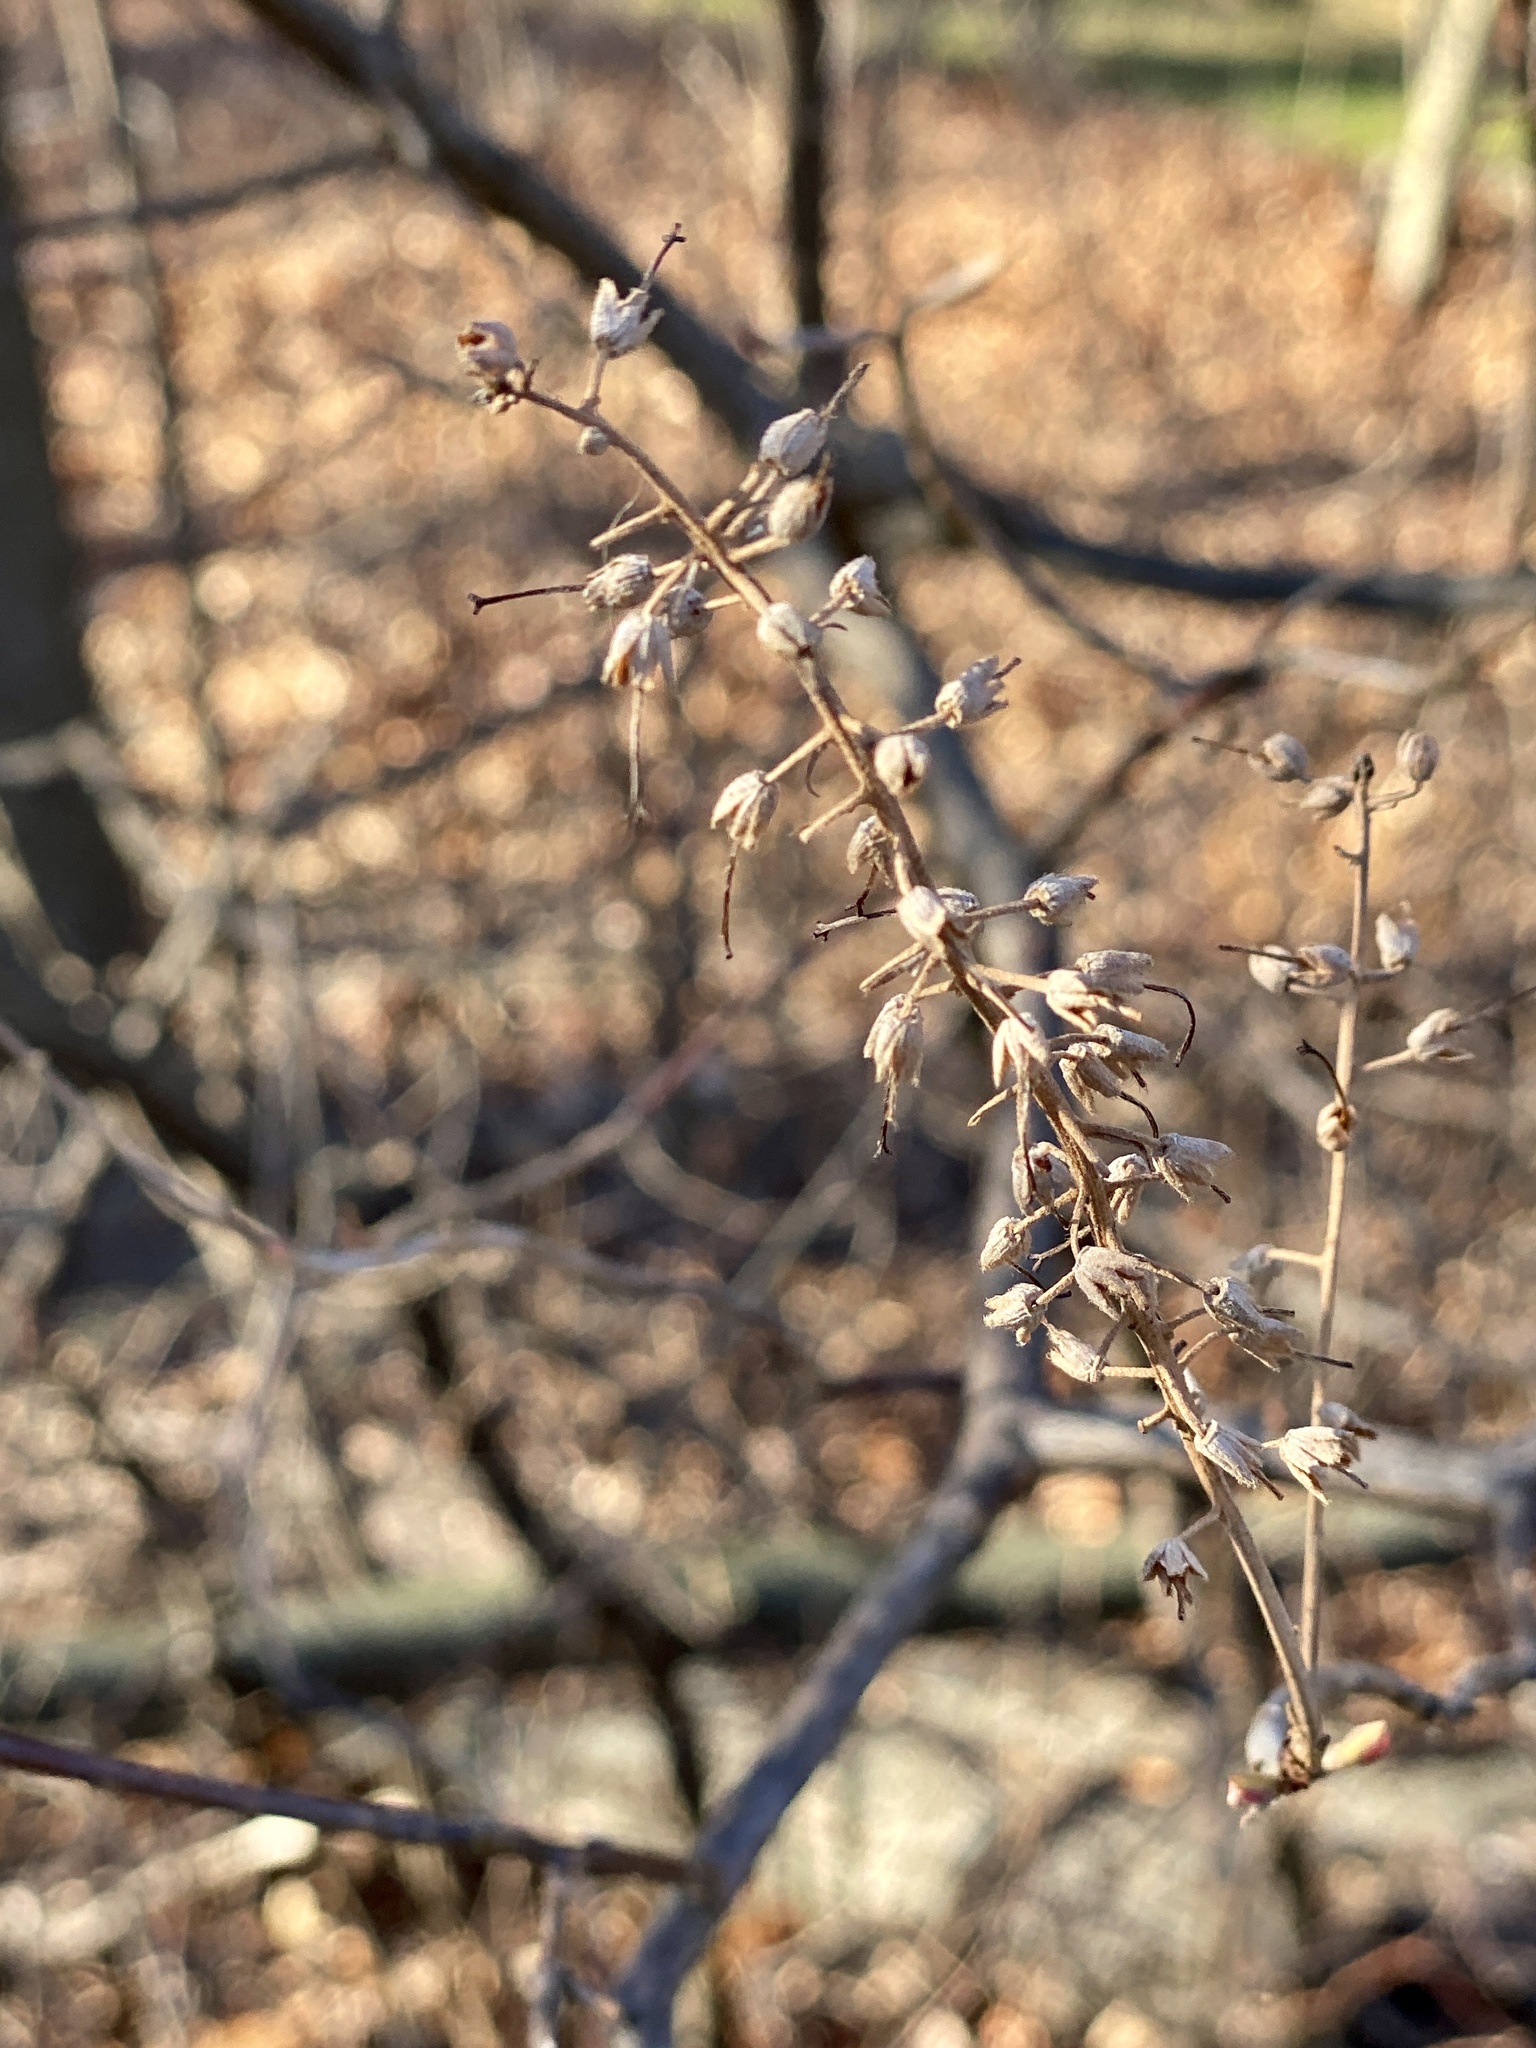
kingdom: Plantae
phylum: Tracheophyta
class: Magnoliopsida
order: Ericales
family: Clethraceae
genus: Clethra
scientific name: Clethra alnifolia
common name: Sweet pepperbush
